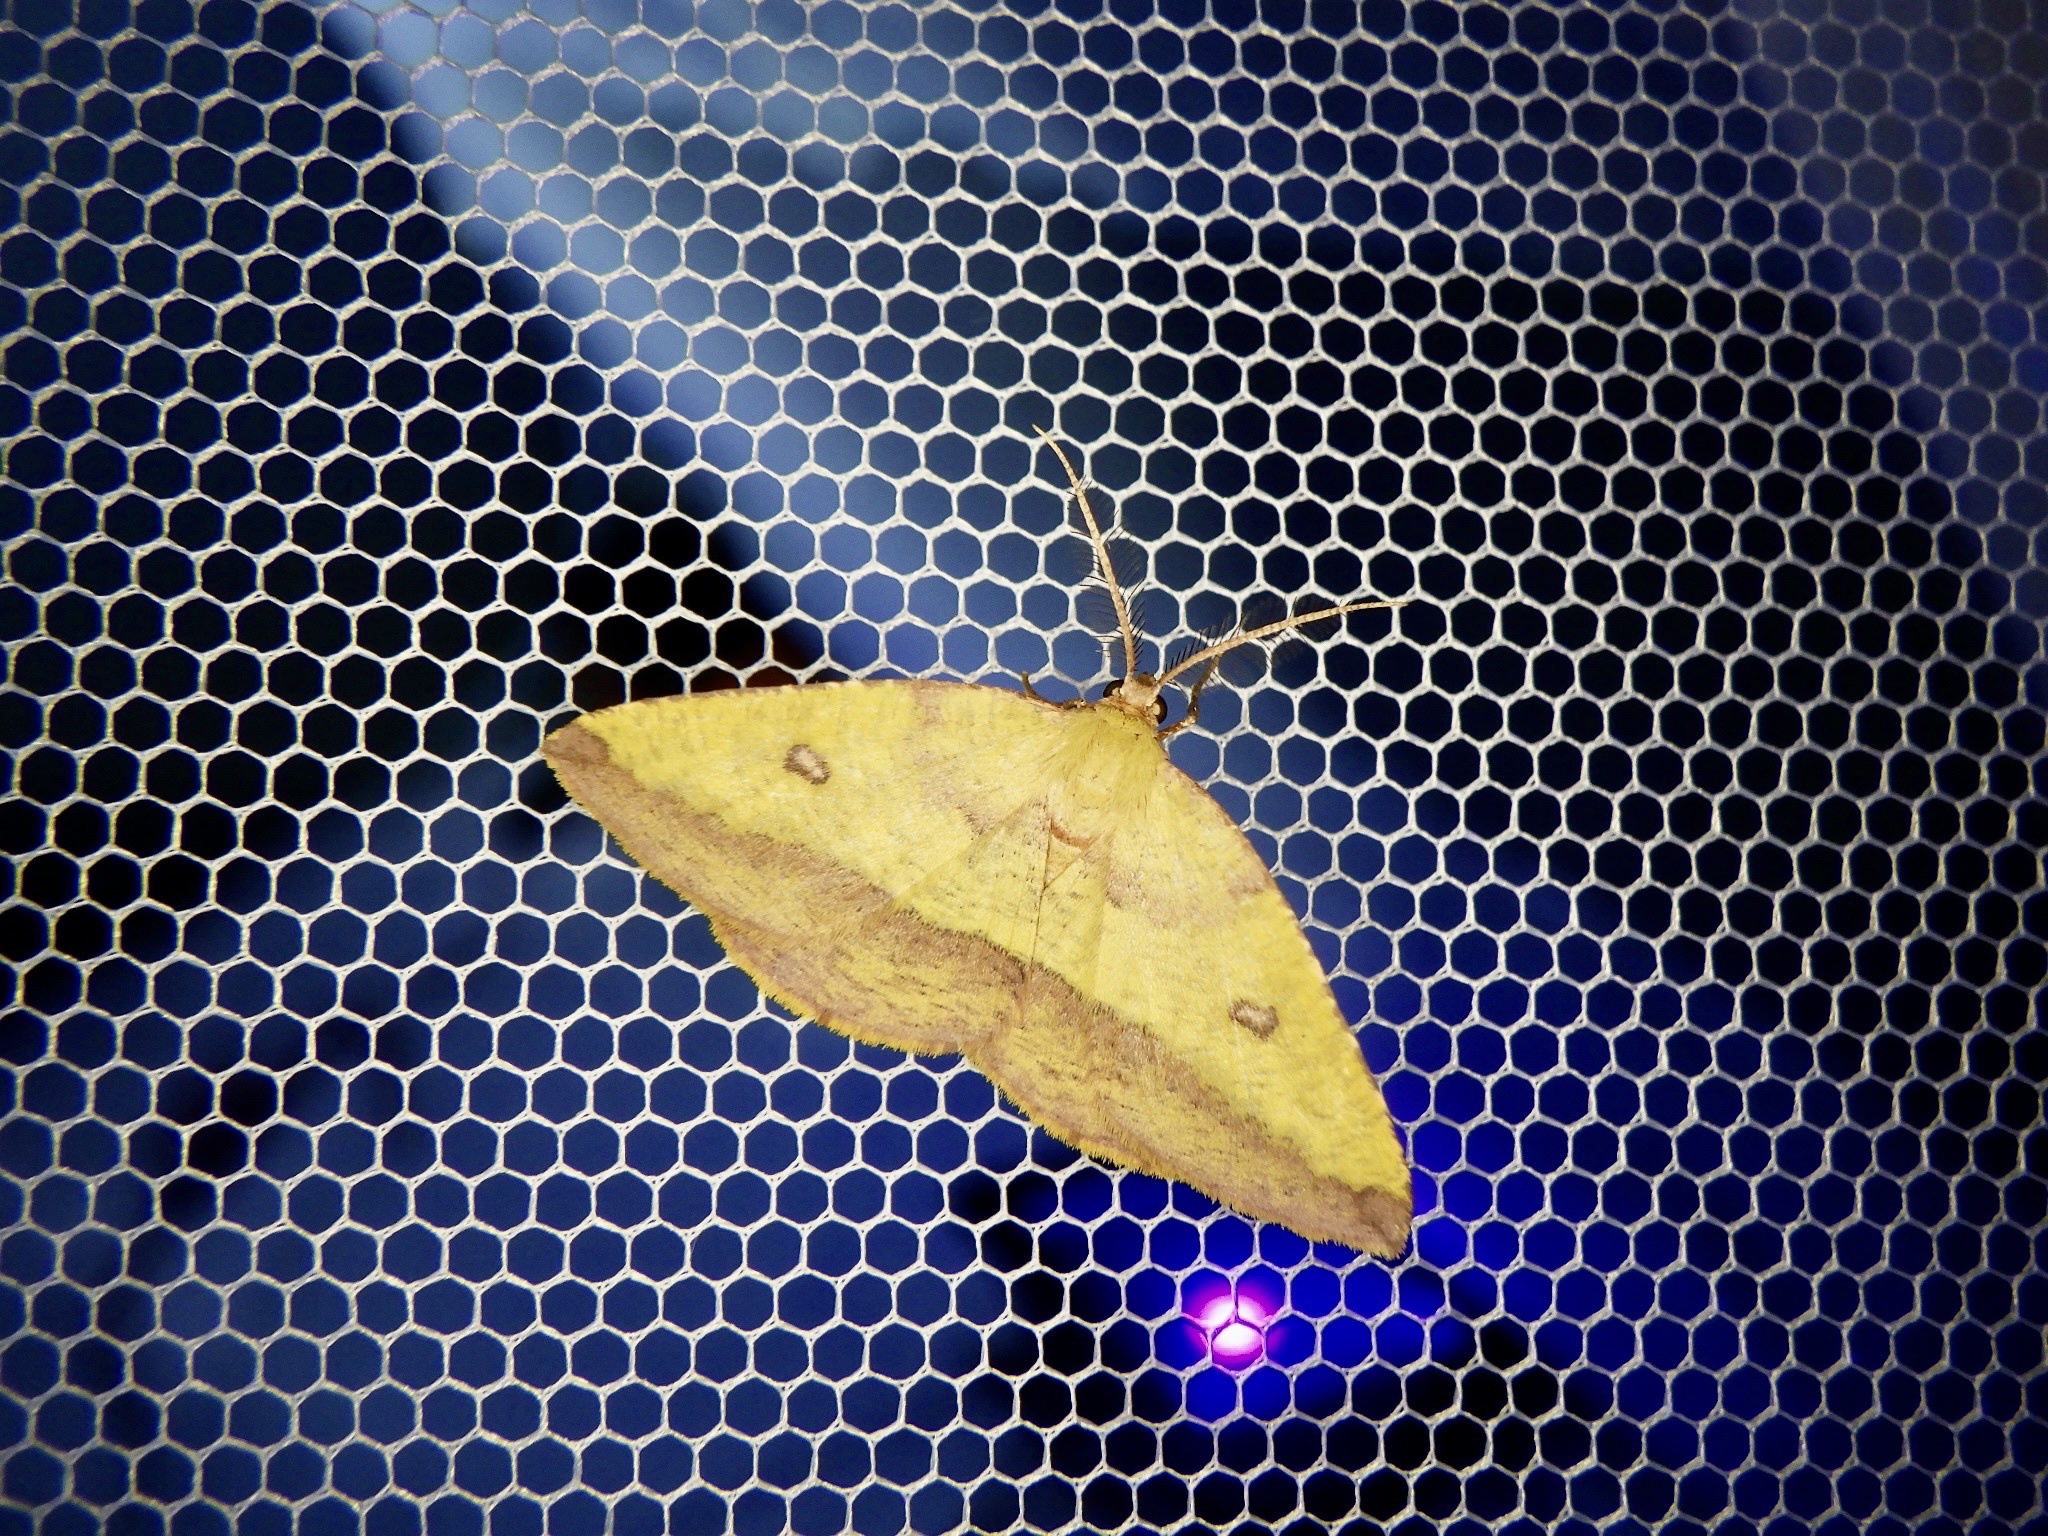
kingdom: Animalia
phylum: Arthropoda
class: Insecta
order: Lepidoptera
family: Geometridae
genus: Heterolocha
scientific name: Heterolocha aristonaria
